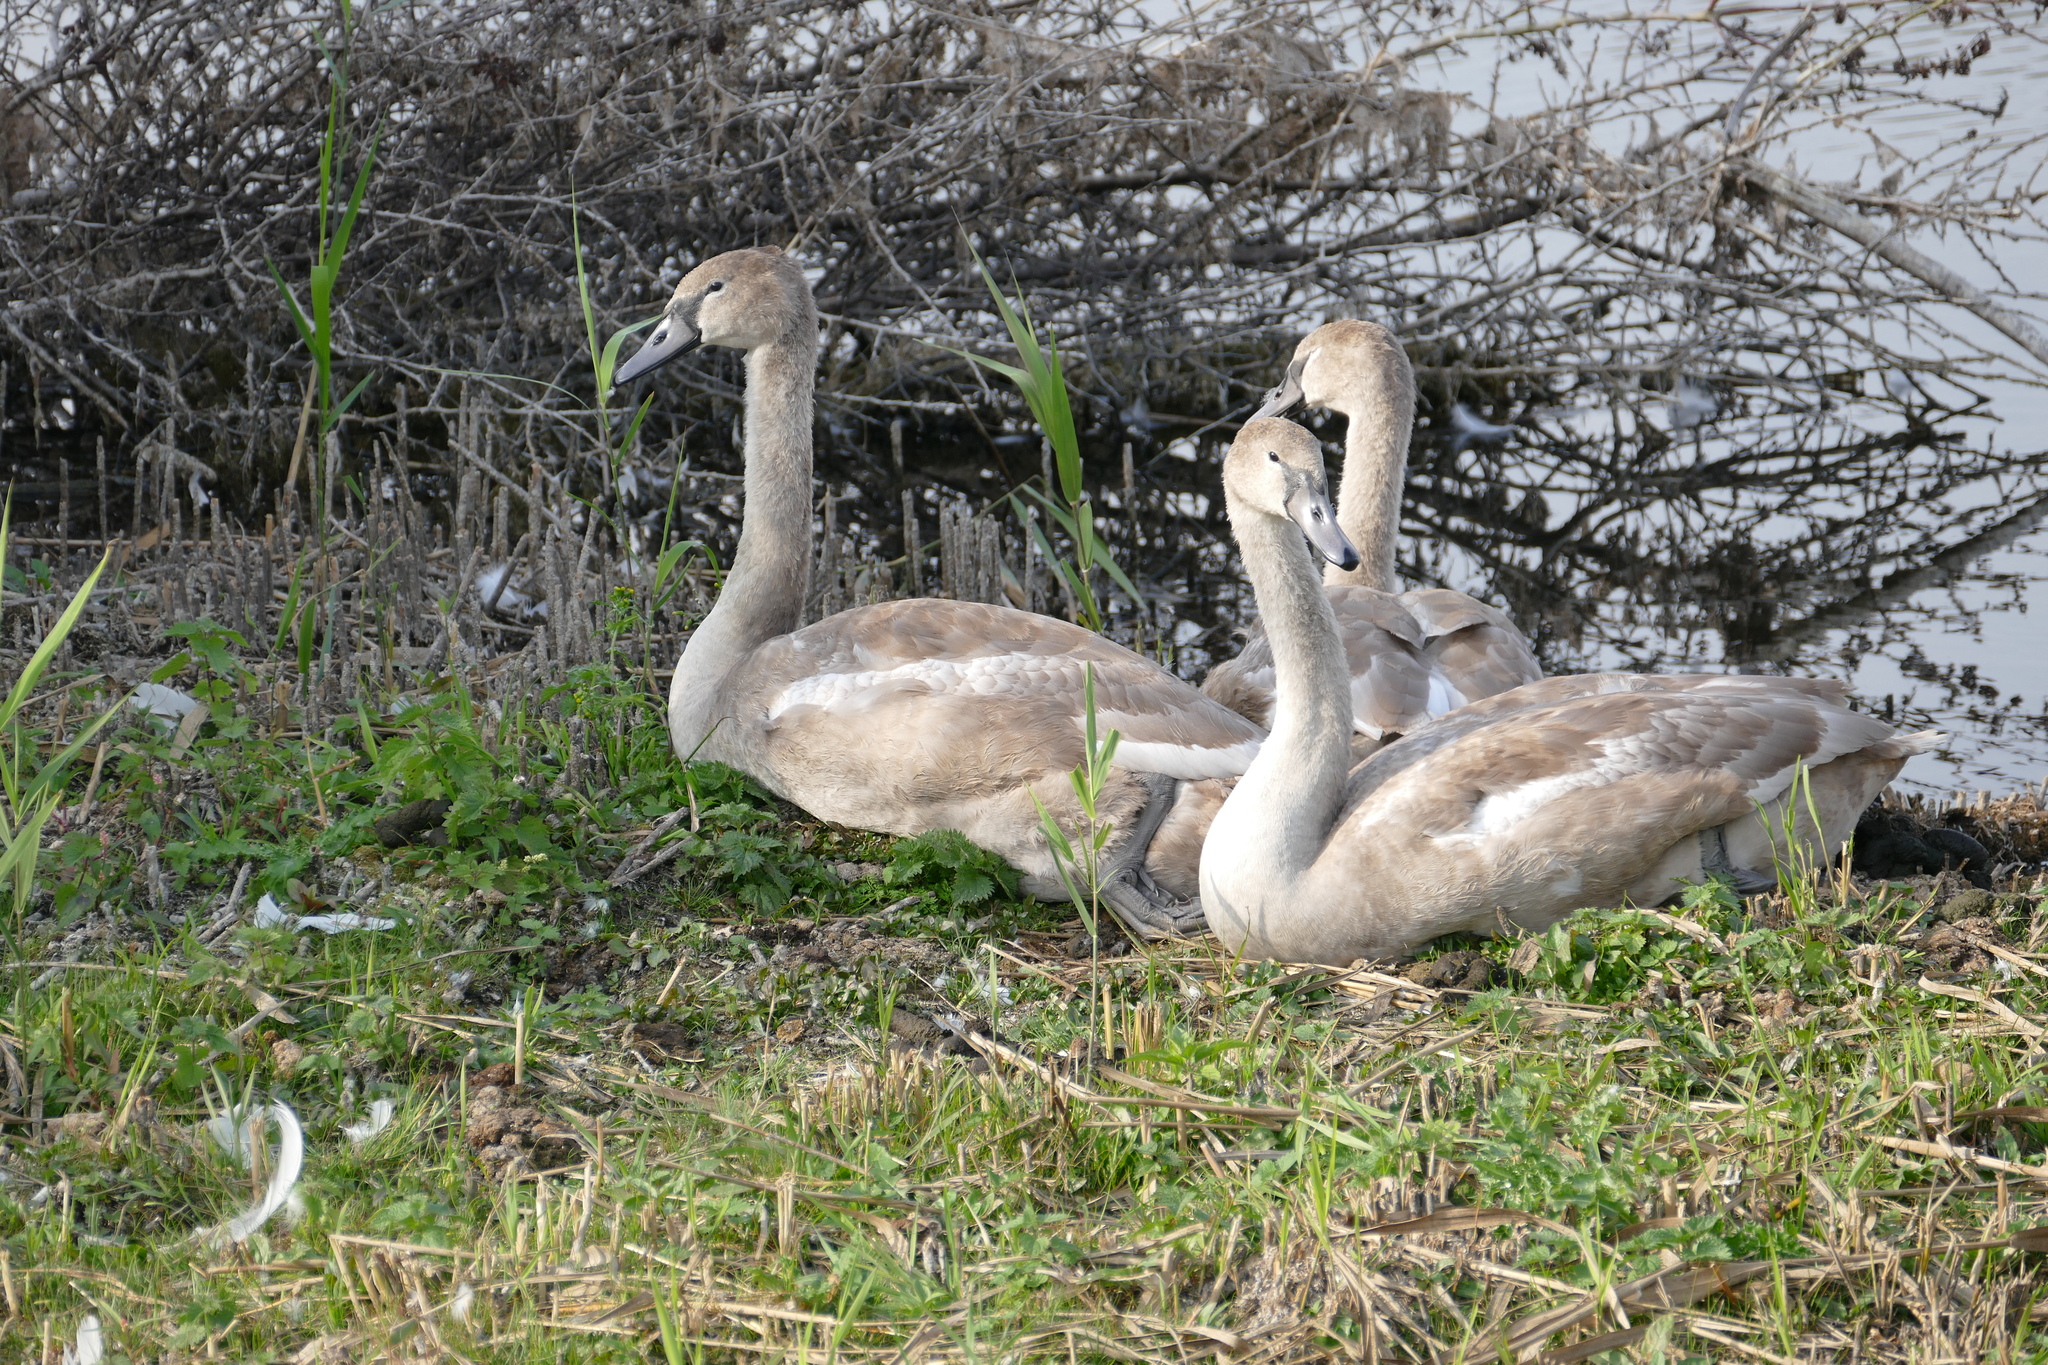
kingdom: Animalia
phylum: Chordata
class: Aves
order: Anseriformes
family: Anatidae
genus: Cygnus
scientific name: Cygnus olor
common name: Mute swan
